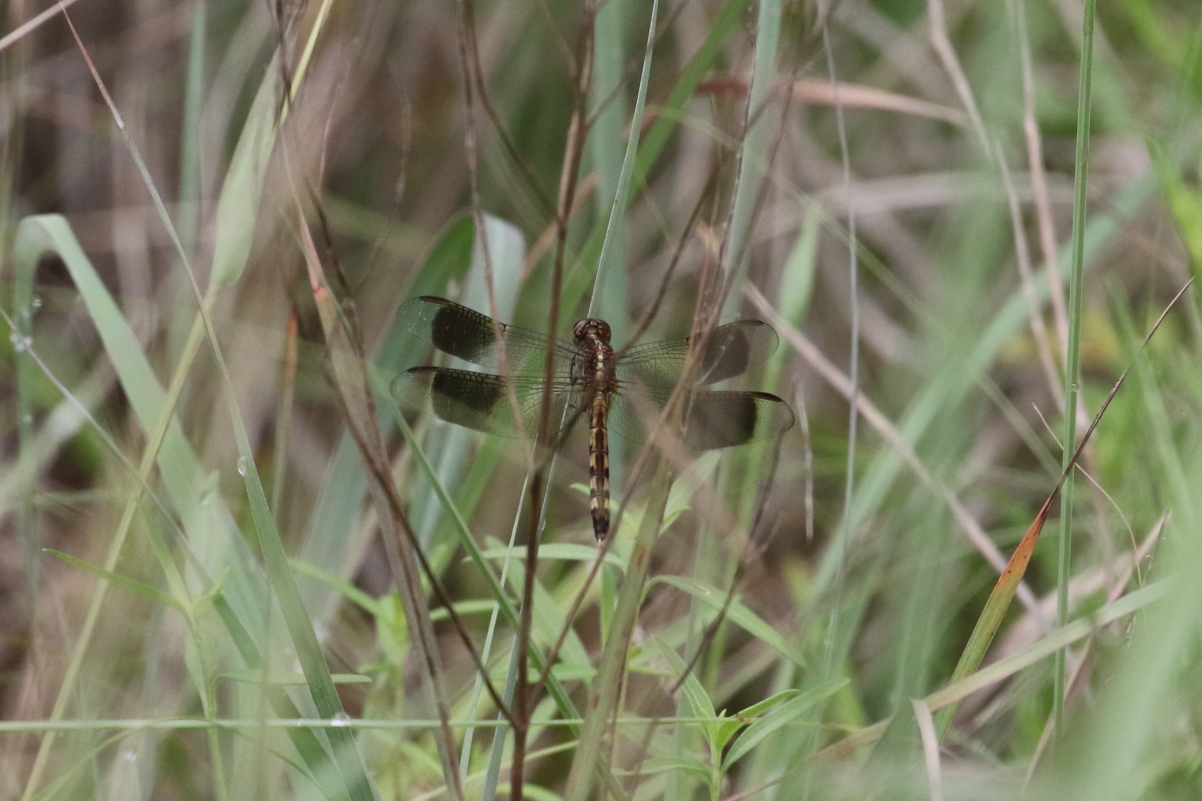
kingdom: Animalia
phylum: Arthropoda
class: Insecta
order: Odonata
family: Libellulidae
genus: Erythrodiplax
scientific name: Erythrodiplax umbrata
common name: Band-winged dragonlet
